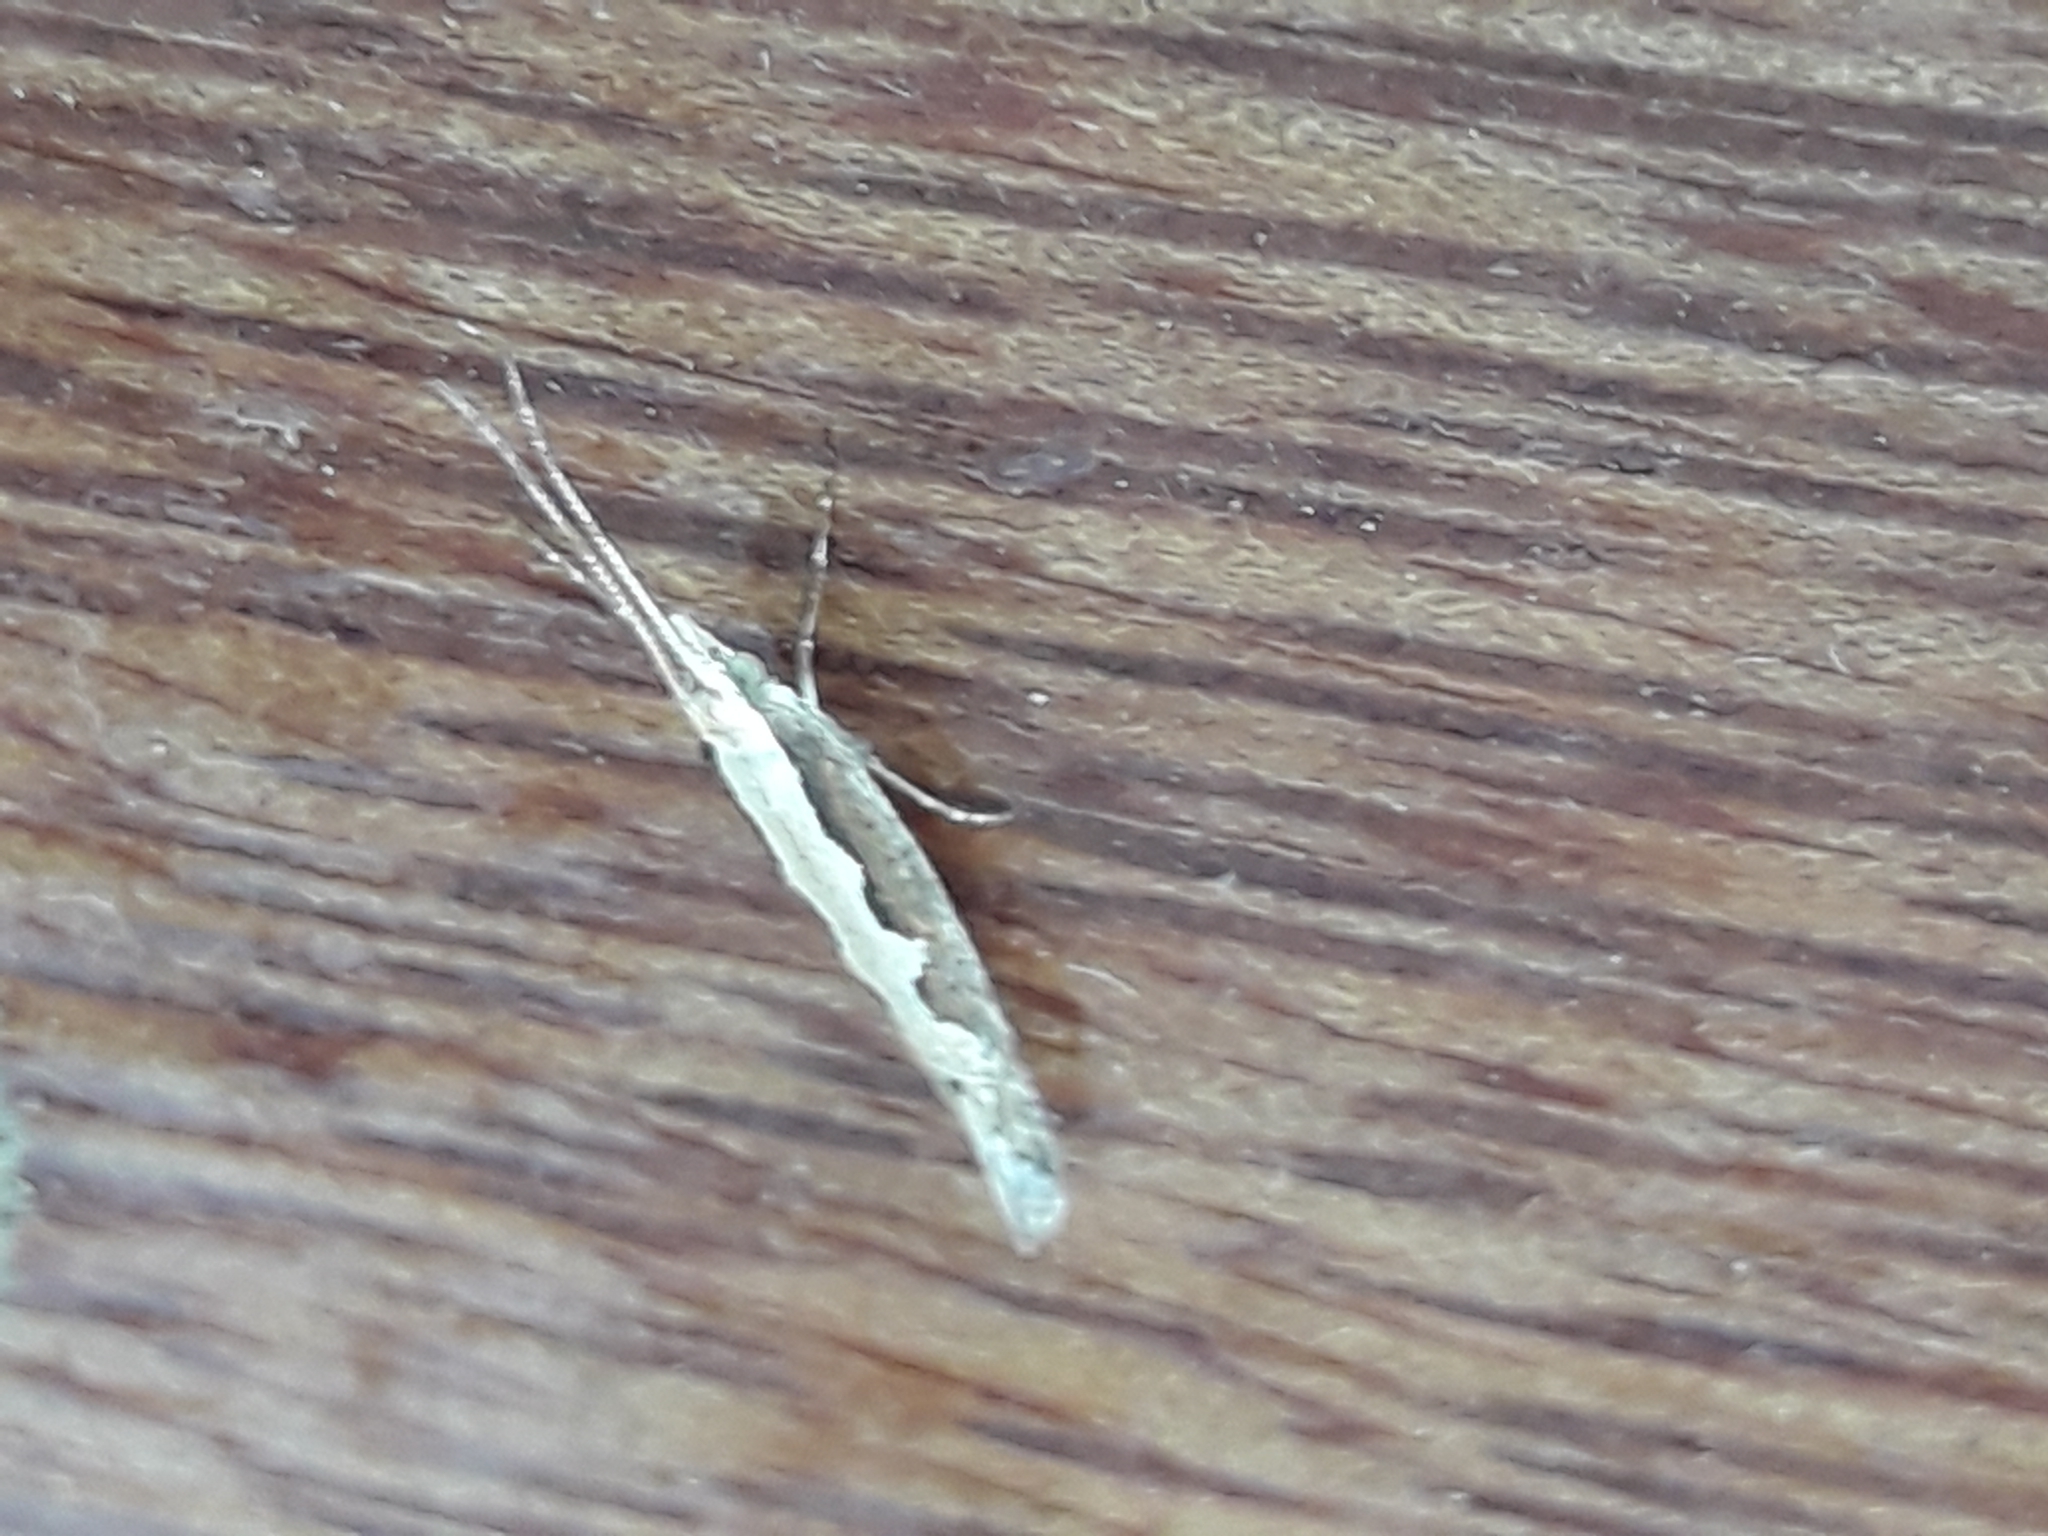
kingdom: Animalia
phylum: Arthropoda
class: Insecta
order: Lepidoptera
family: Plutellidae
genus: Plutella
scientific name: Plutella xylostella
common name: Diamond-back moth
